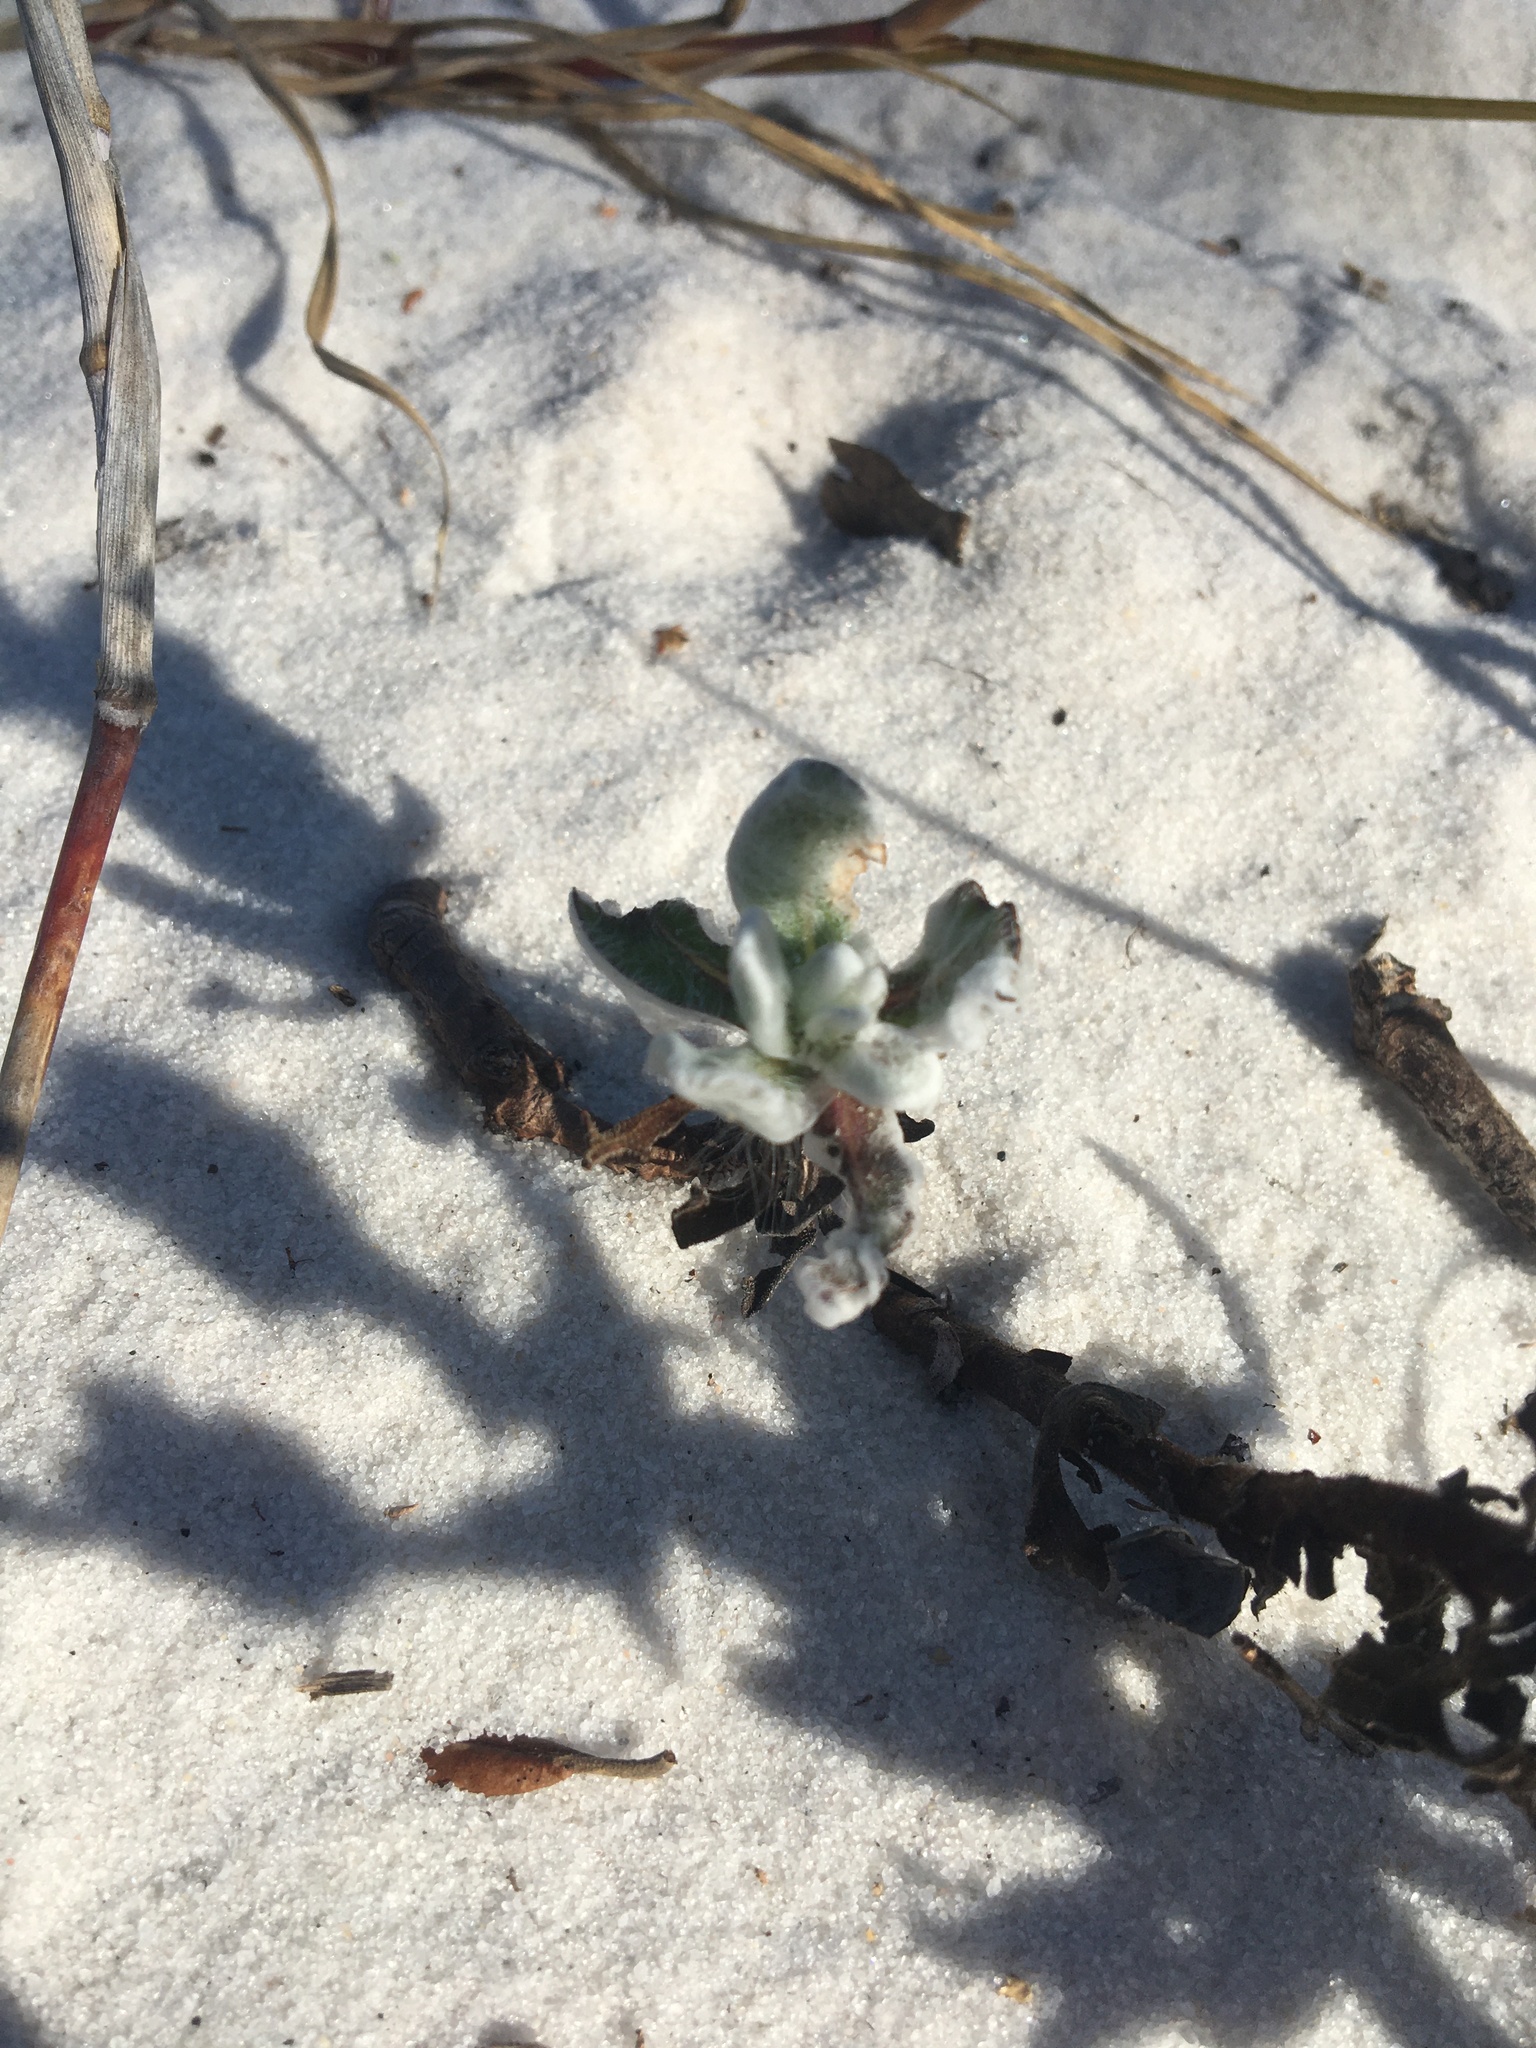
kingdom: Plantae
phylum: Tracheophyta
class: Magnoliopsida
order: Asterales
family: Asteraceae
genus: Chrysopsis
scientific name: Chrysopsis godfreyi
